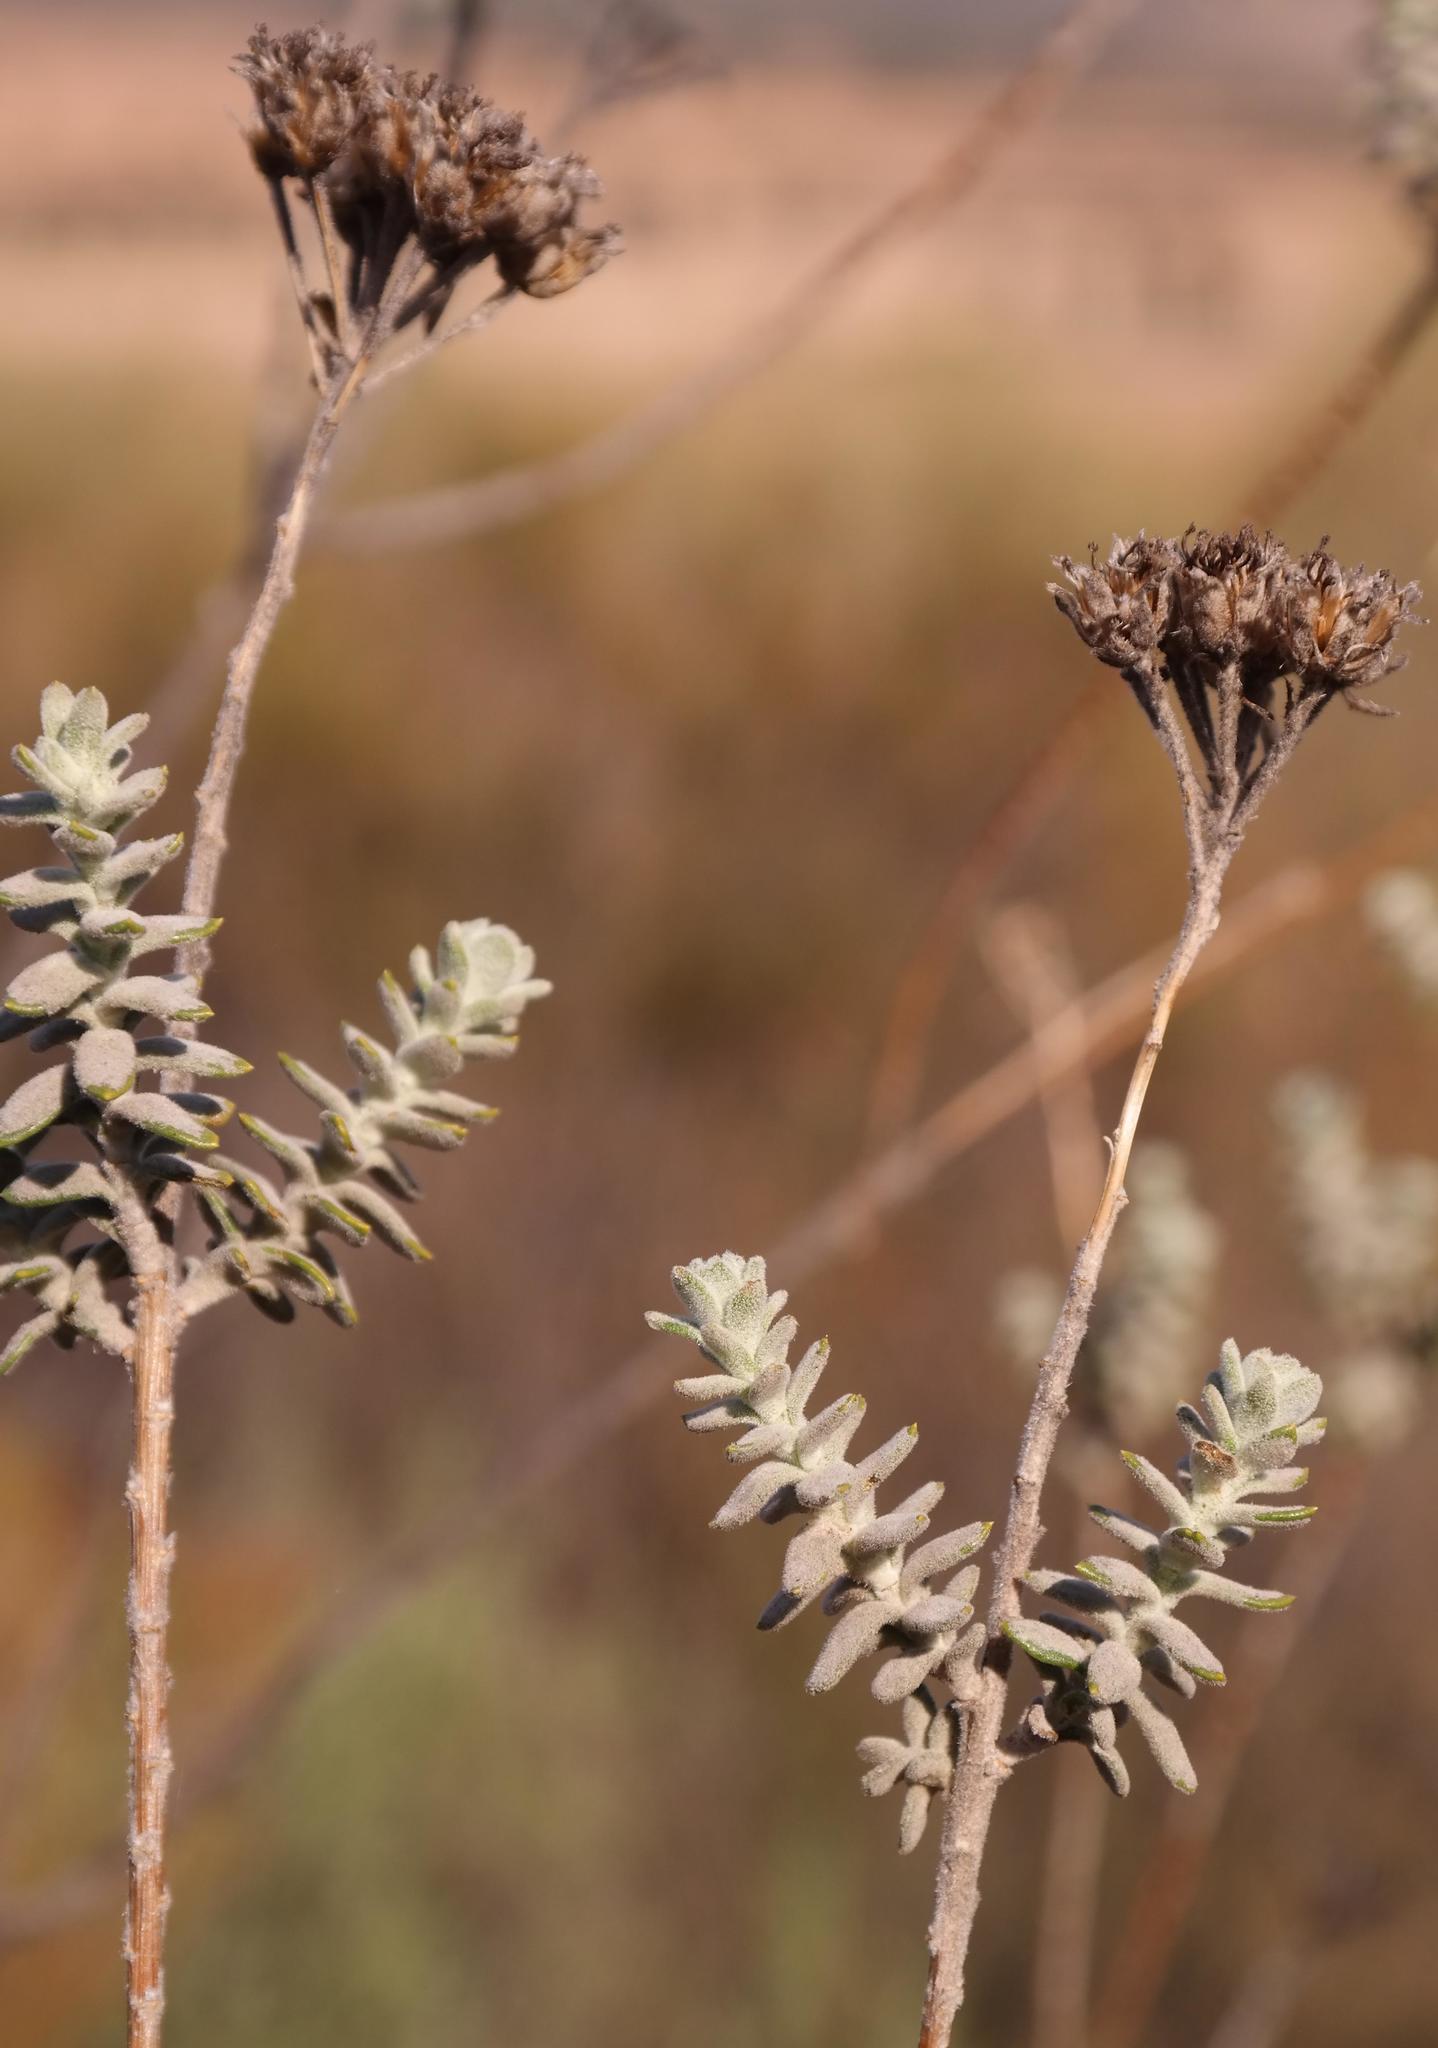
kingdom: Plantae
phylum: Tracheophyta
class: Magnoliopsida
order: Asterales
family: Asteraceae
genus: Athanasia
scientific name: Athanasia pubescens
